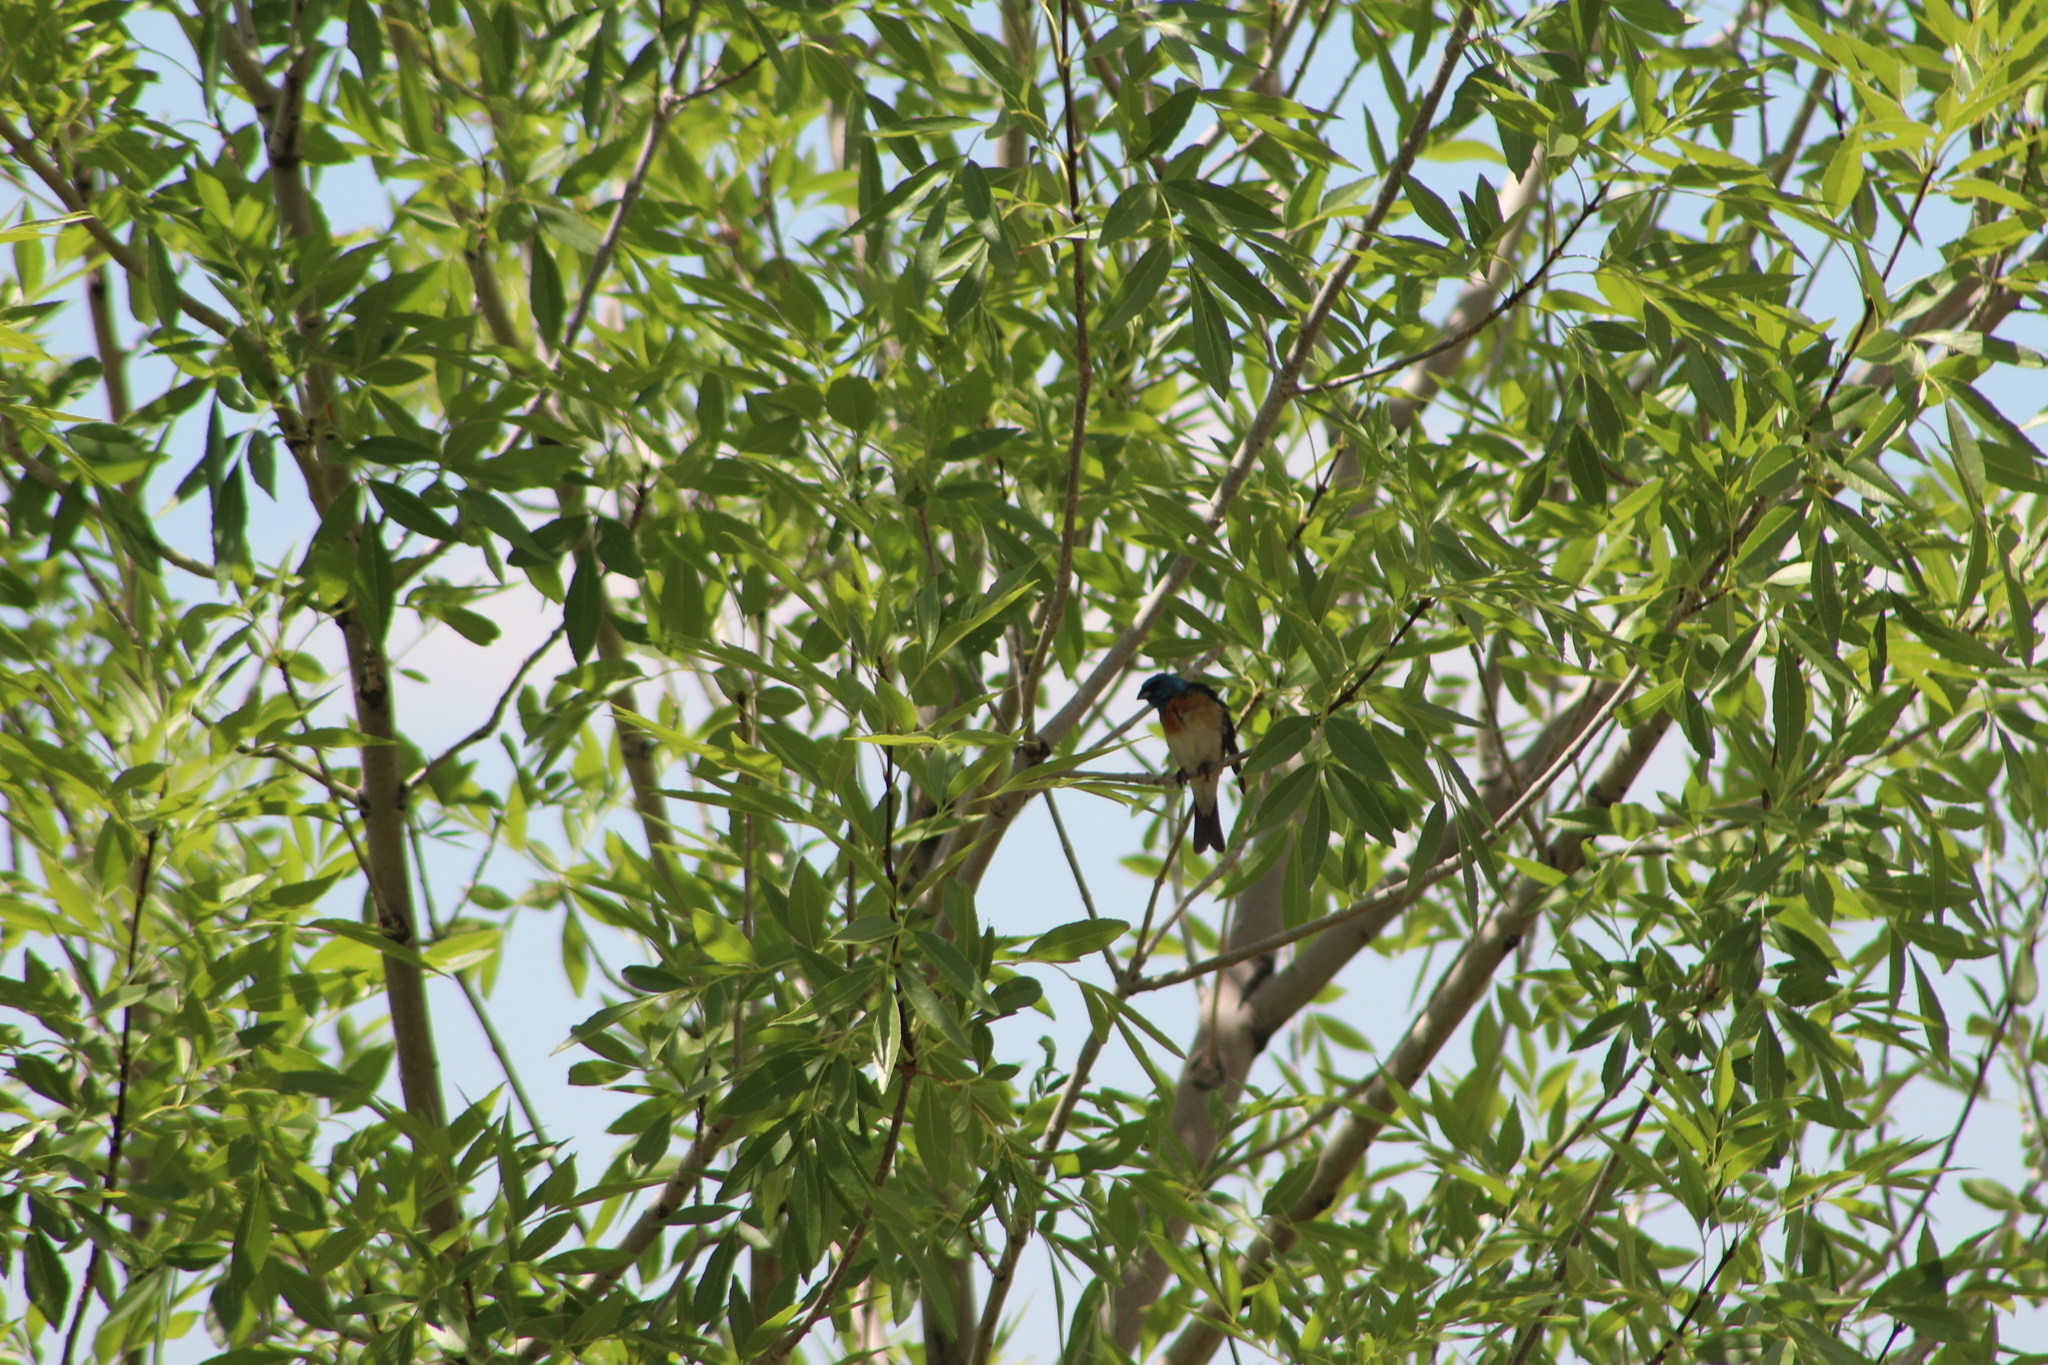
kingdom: Animalia
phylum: Chordata
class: Aves
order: Passeriformes
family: Cardinalidae
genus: Passerina
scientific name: Passerina amoena
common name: Lazuli bunting
